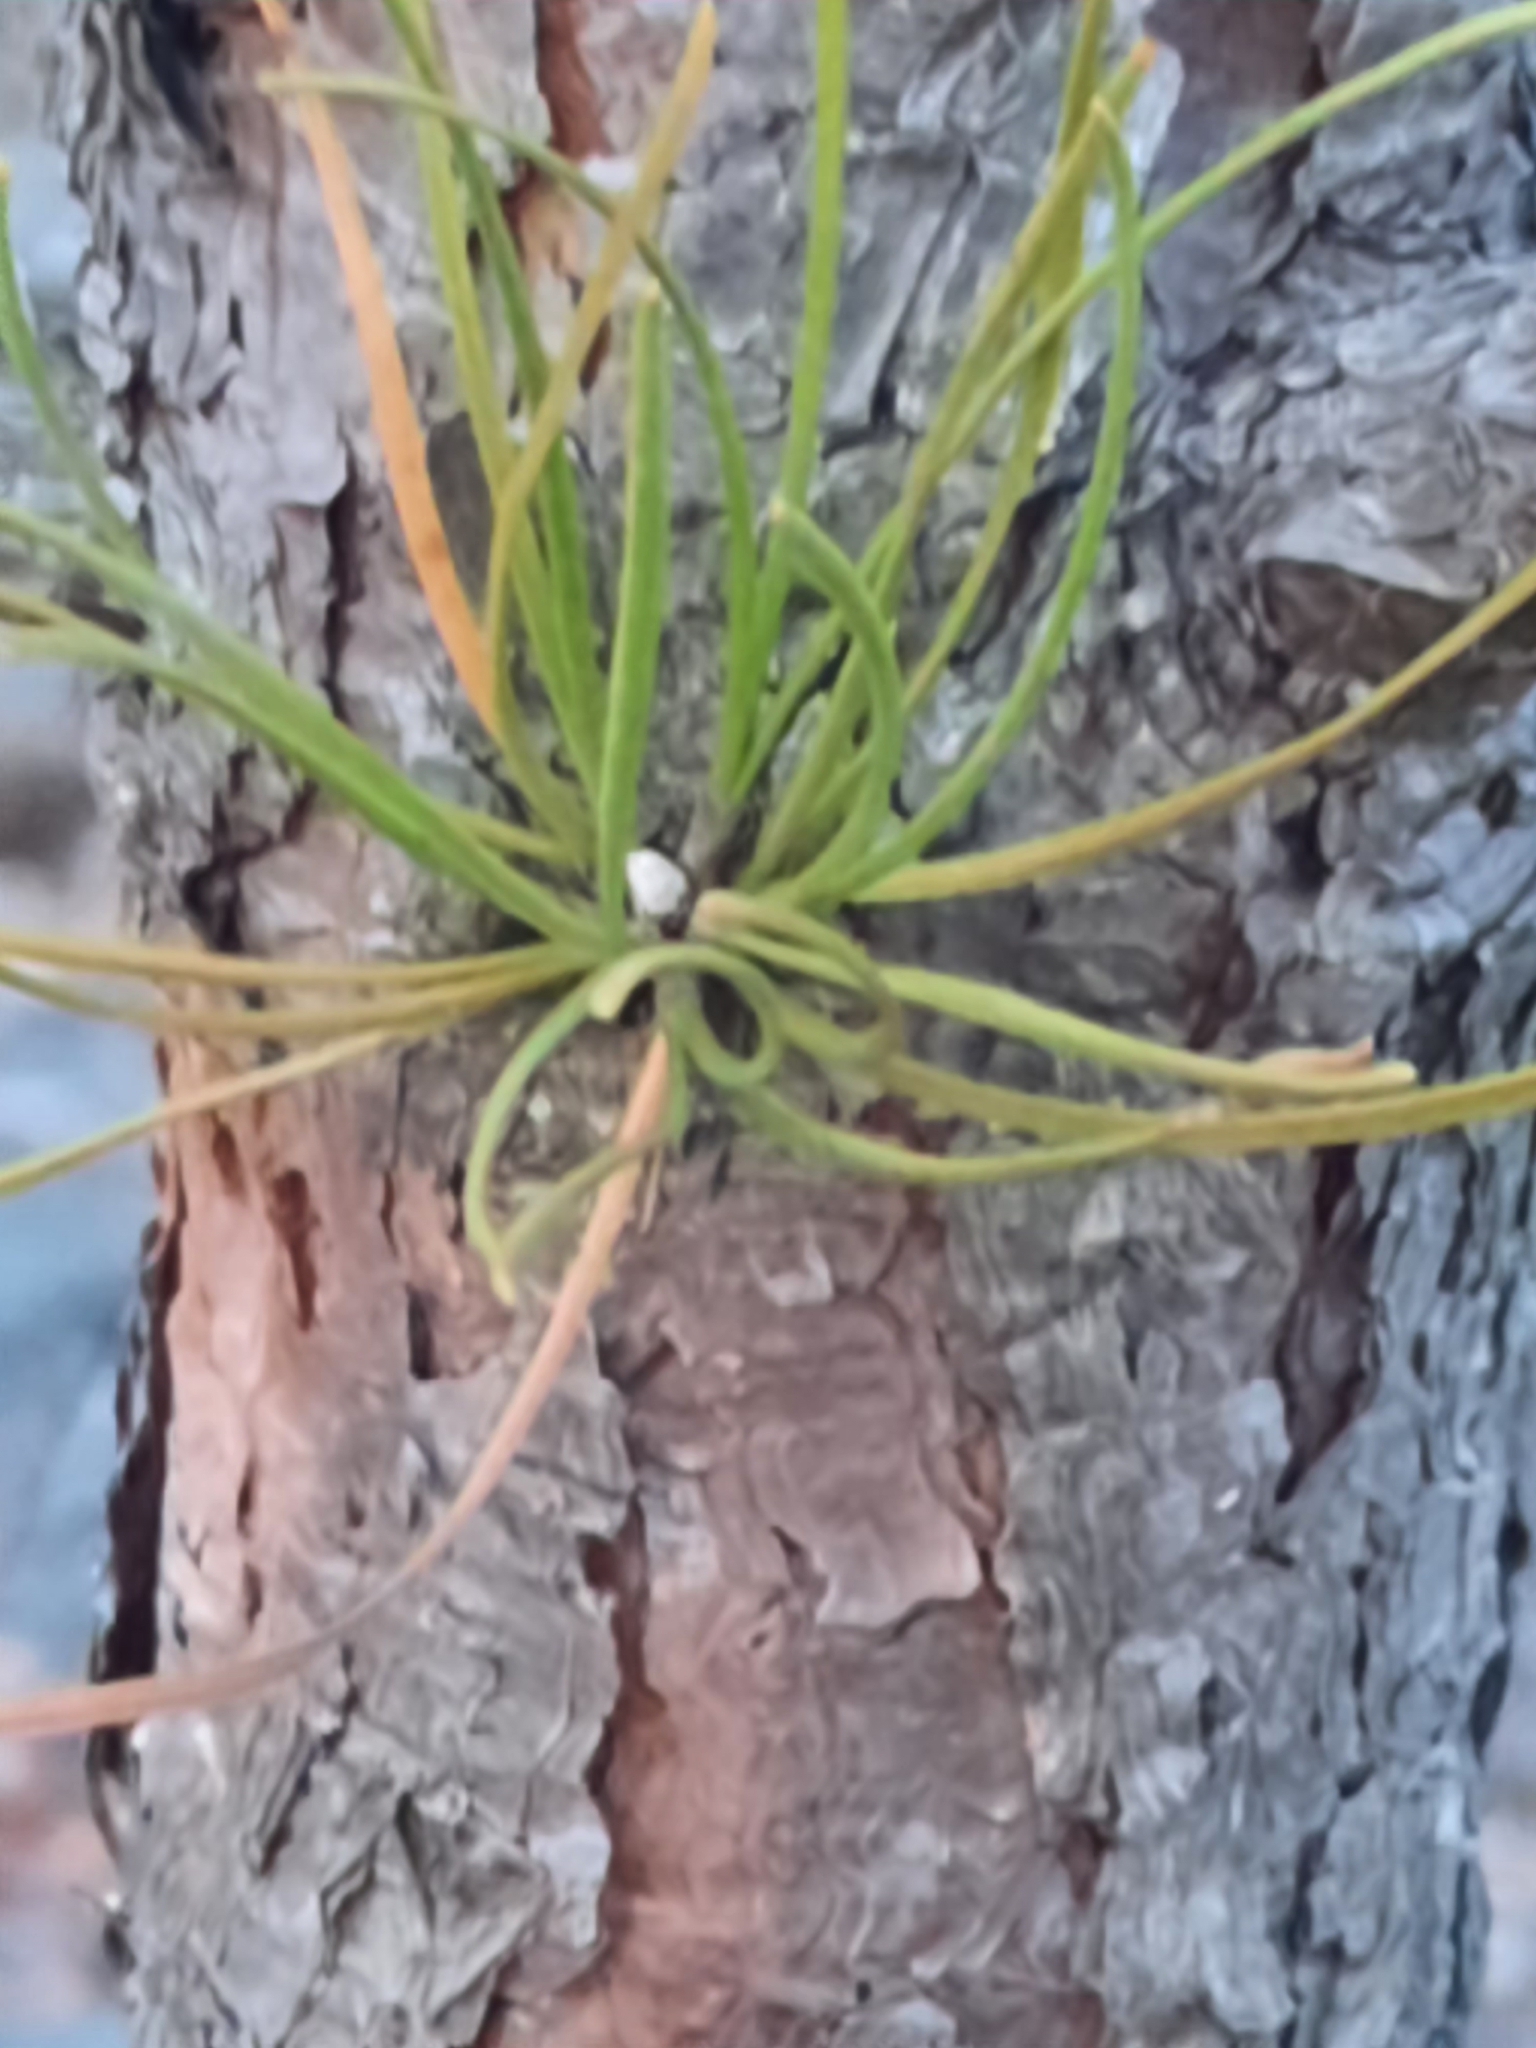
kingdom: Plantae
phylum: Tracheophyta
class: Pinopsida
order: Pinales
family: Pinaceae
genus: Pinus
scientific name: Pinus rigida
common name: Pitch pine
